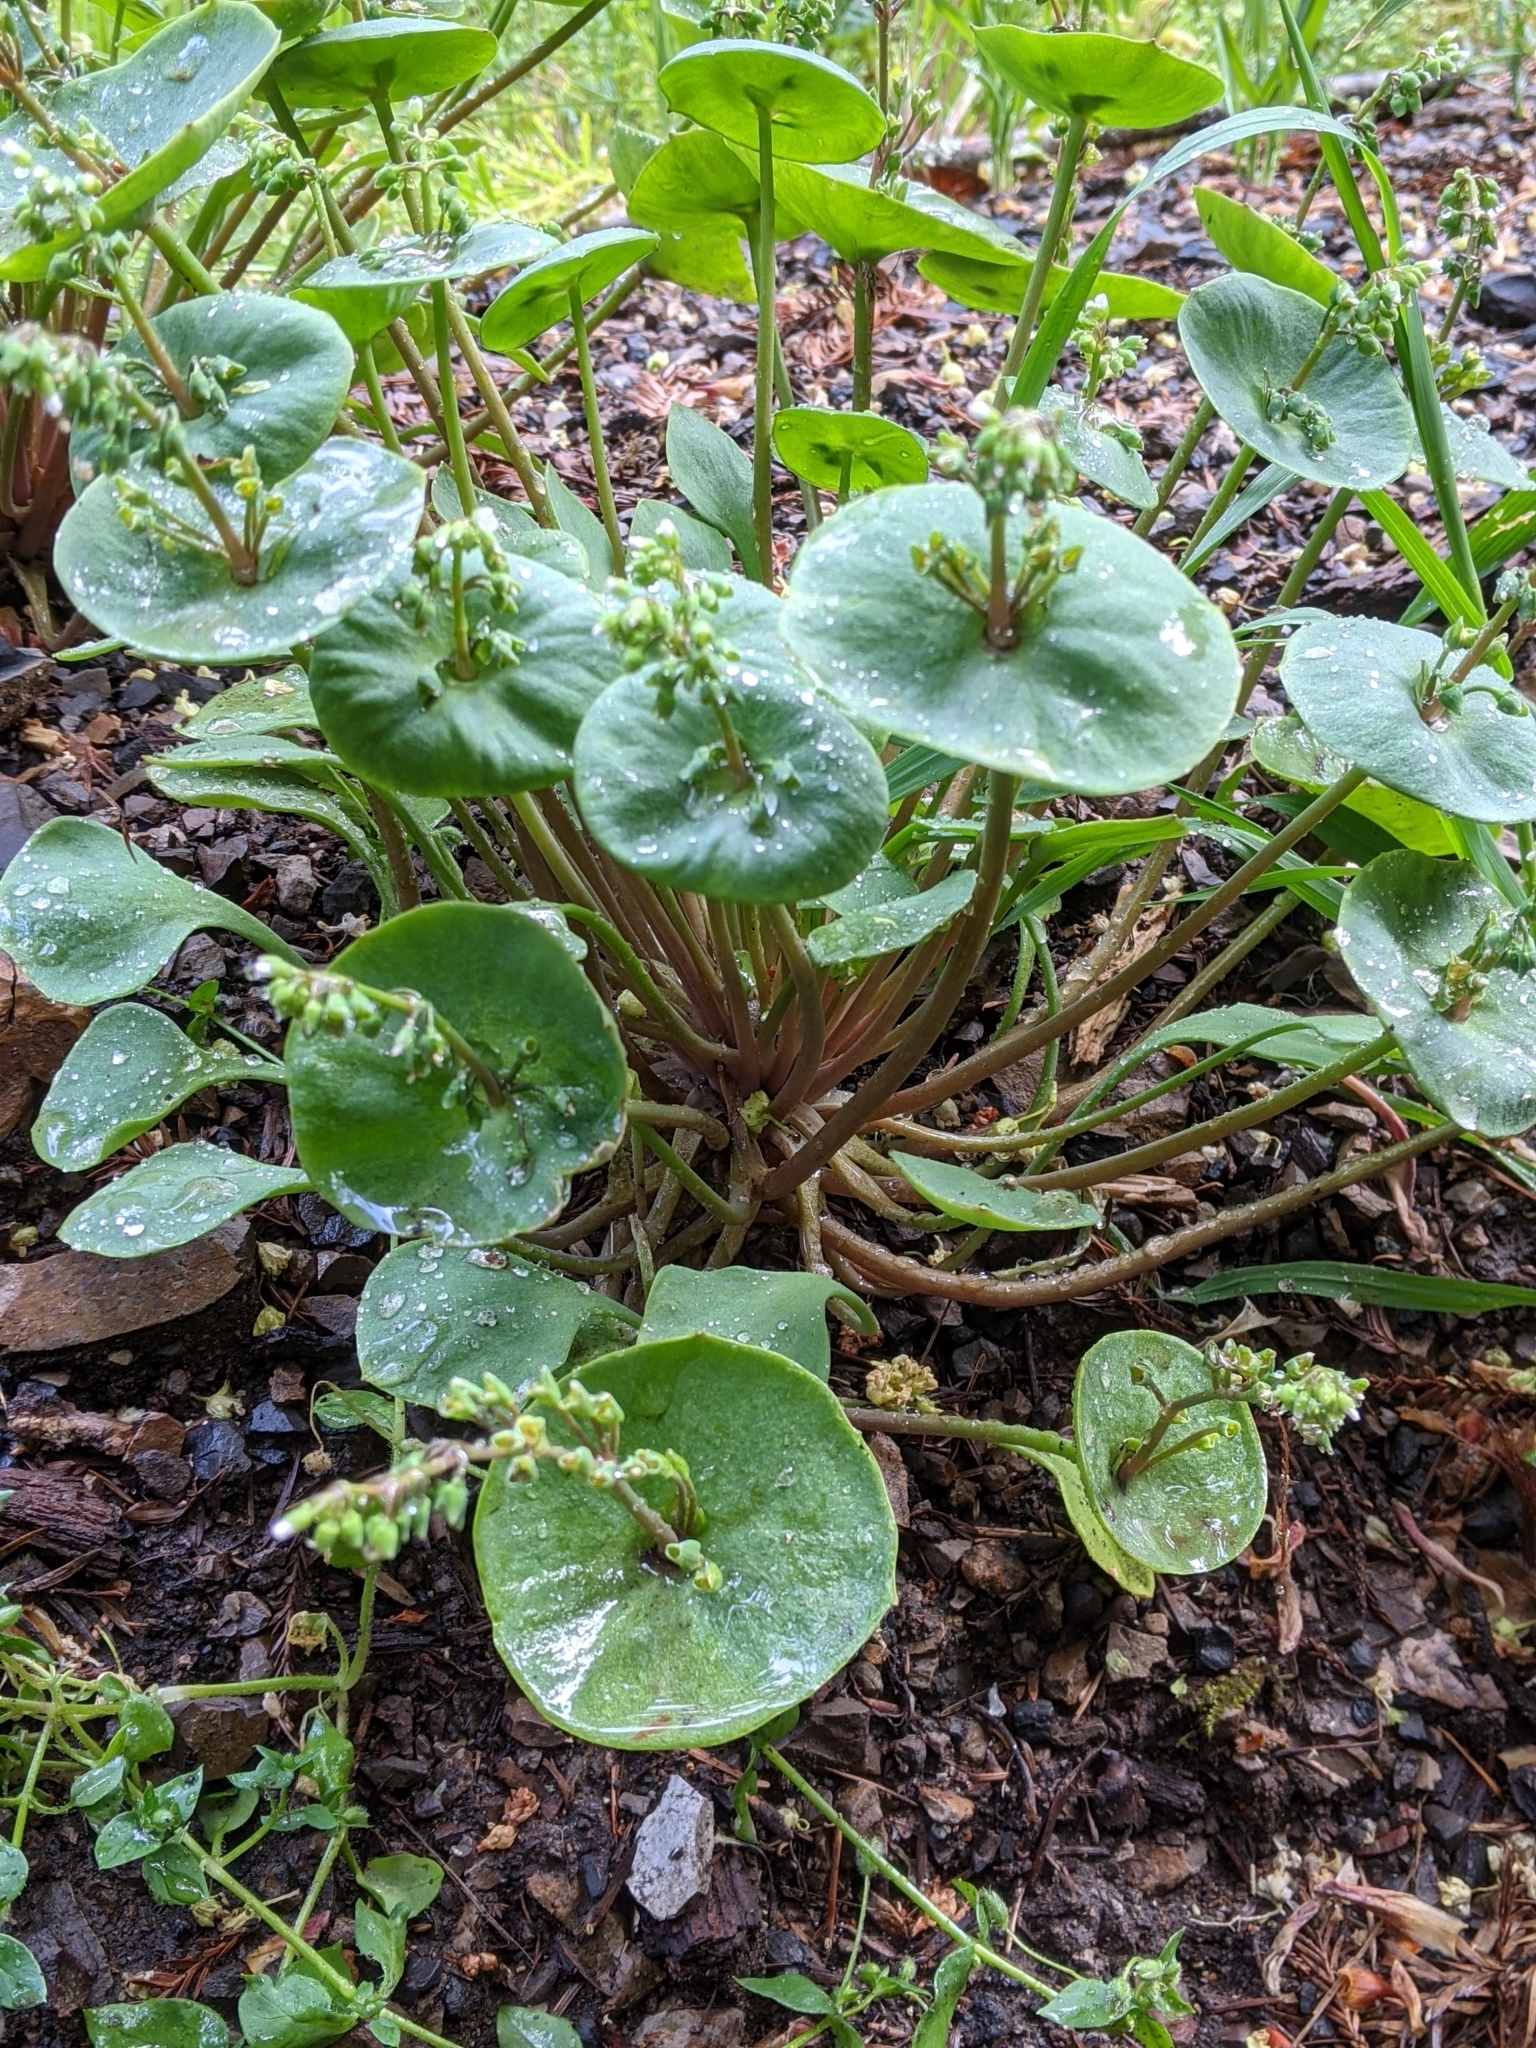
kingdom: Plantae
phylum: Tracheophyta
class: Magnoliopsida
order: Caryophyllales
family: Montiaceae
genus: Claytonia
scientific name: Claytonia perfoliata
